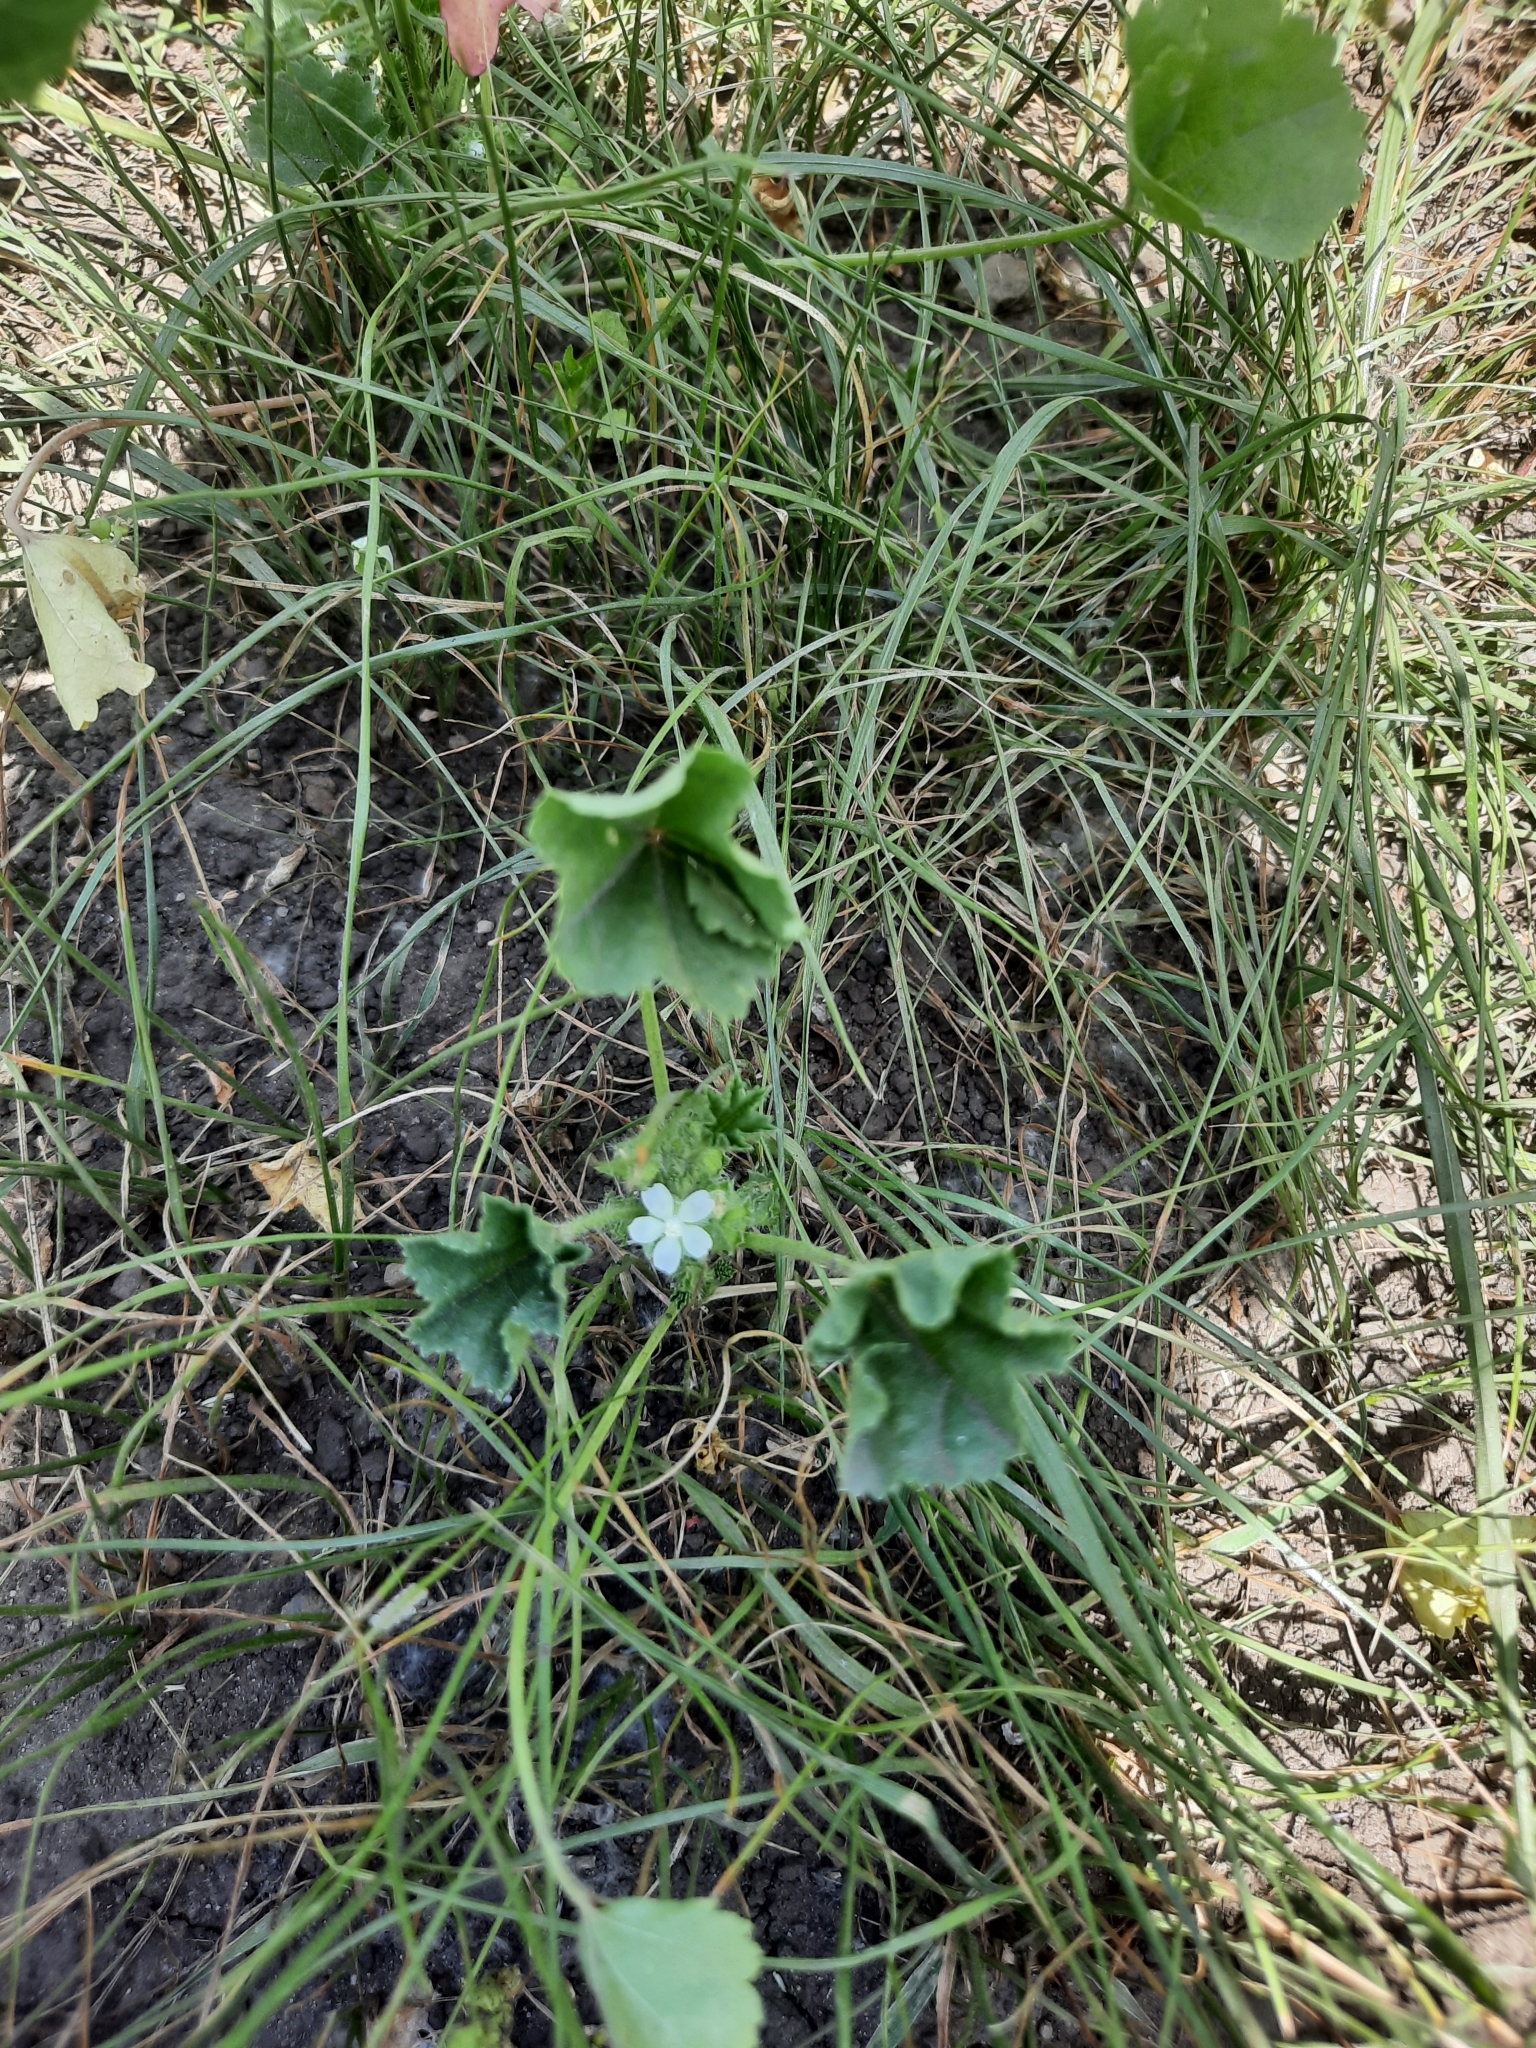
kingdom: Plantae
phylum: Tracheophyta
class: Magnoliopsida
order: Malvales
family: Malvaceae
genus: Malva
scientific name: Malva pusilla
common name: Small mallow
